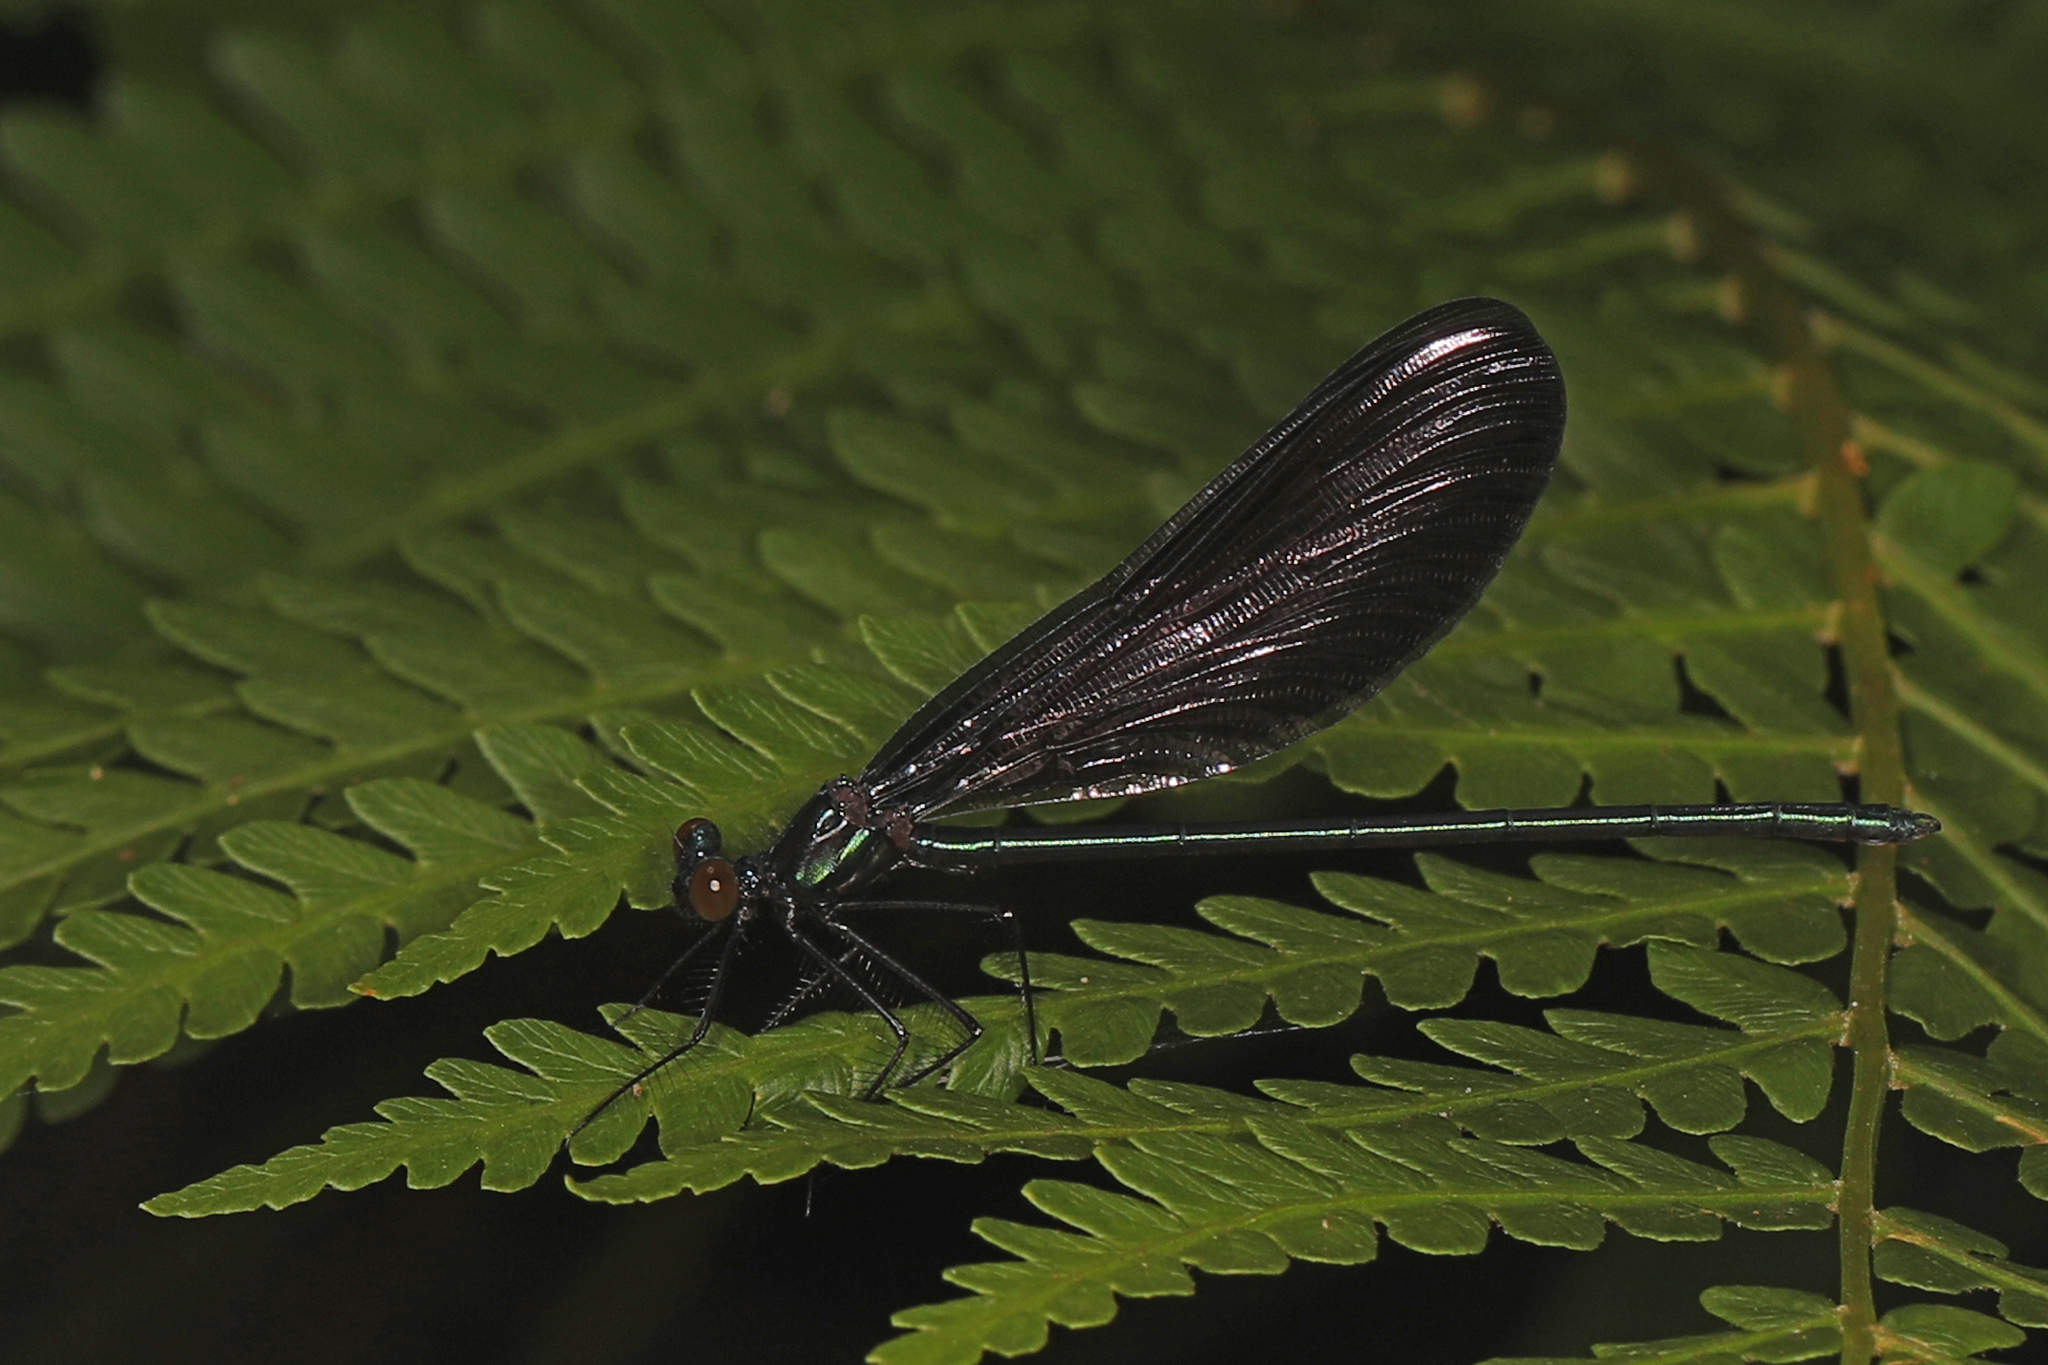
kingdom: Animalia
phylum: Arthropoda
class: Insecta
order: Odonata
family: Calopterygidae
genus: Calopteryx
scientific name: Calopteryx maculata
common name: Ebony jewelwing
